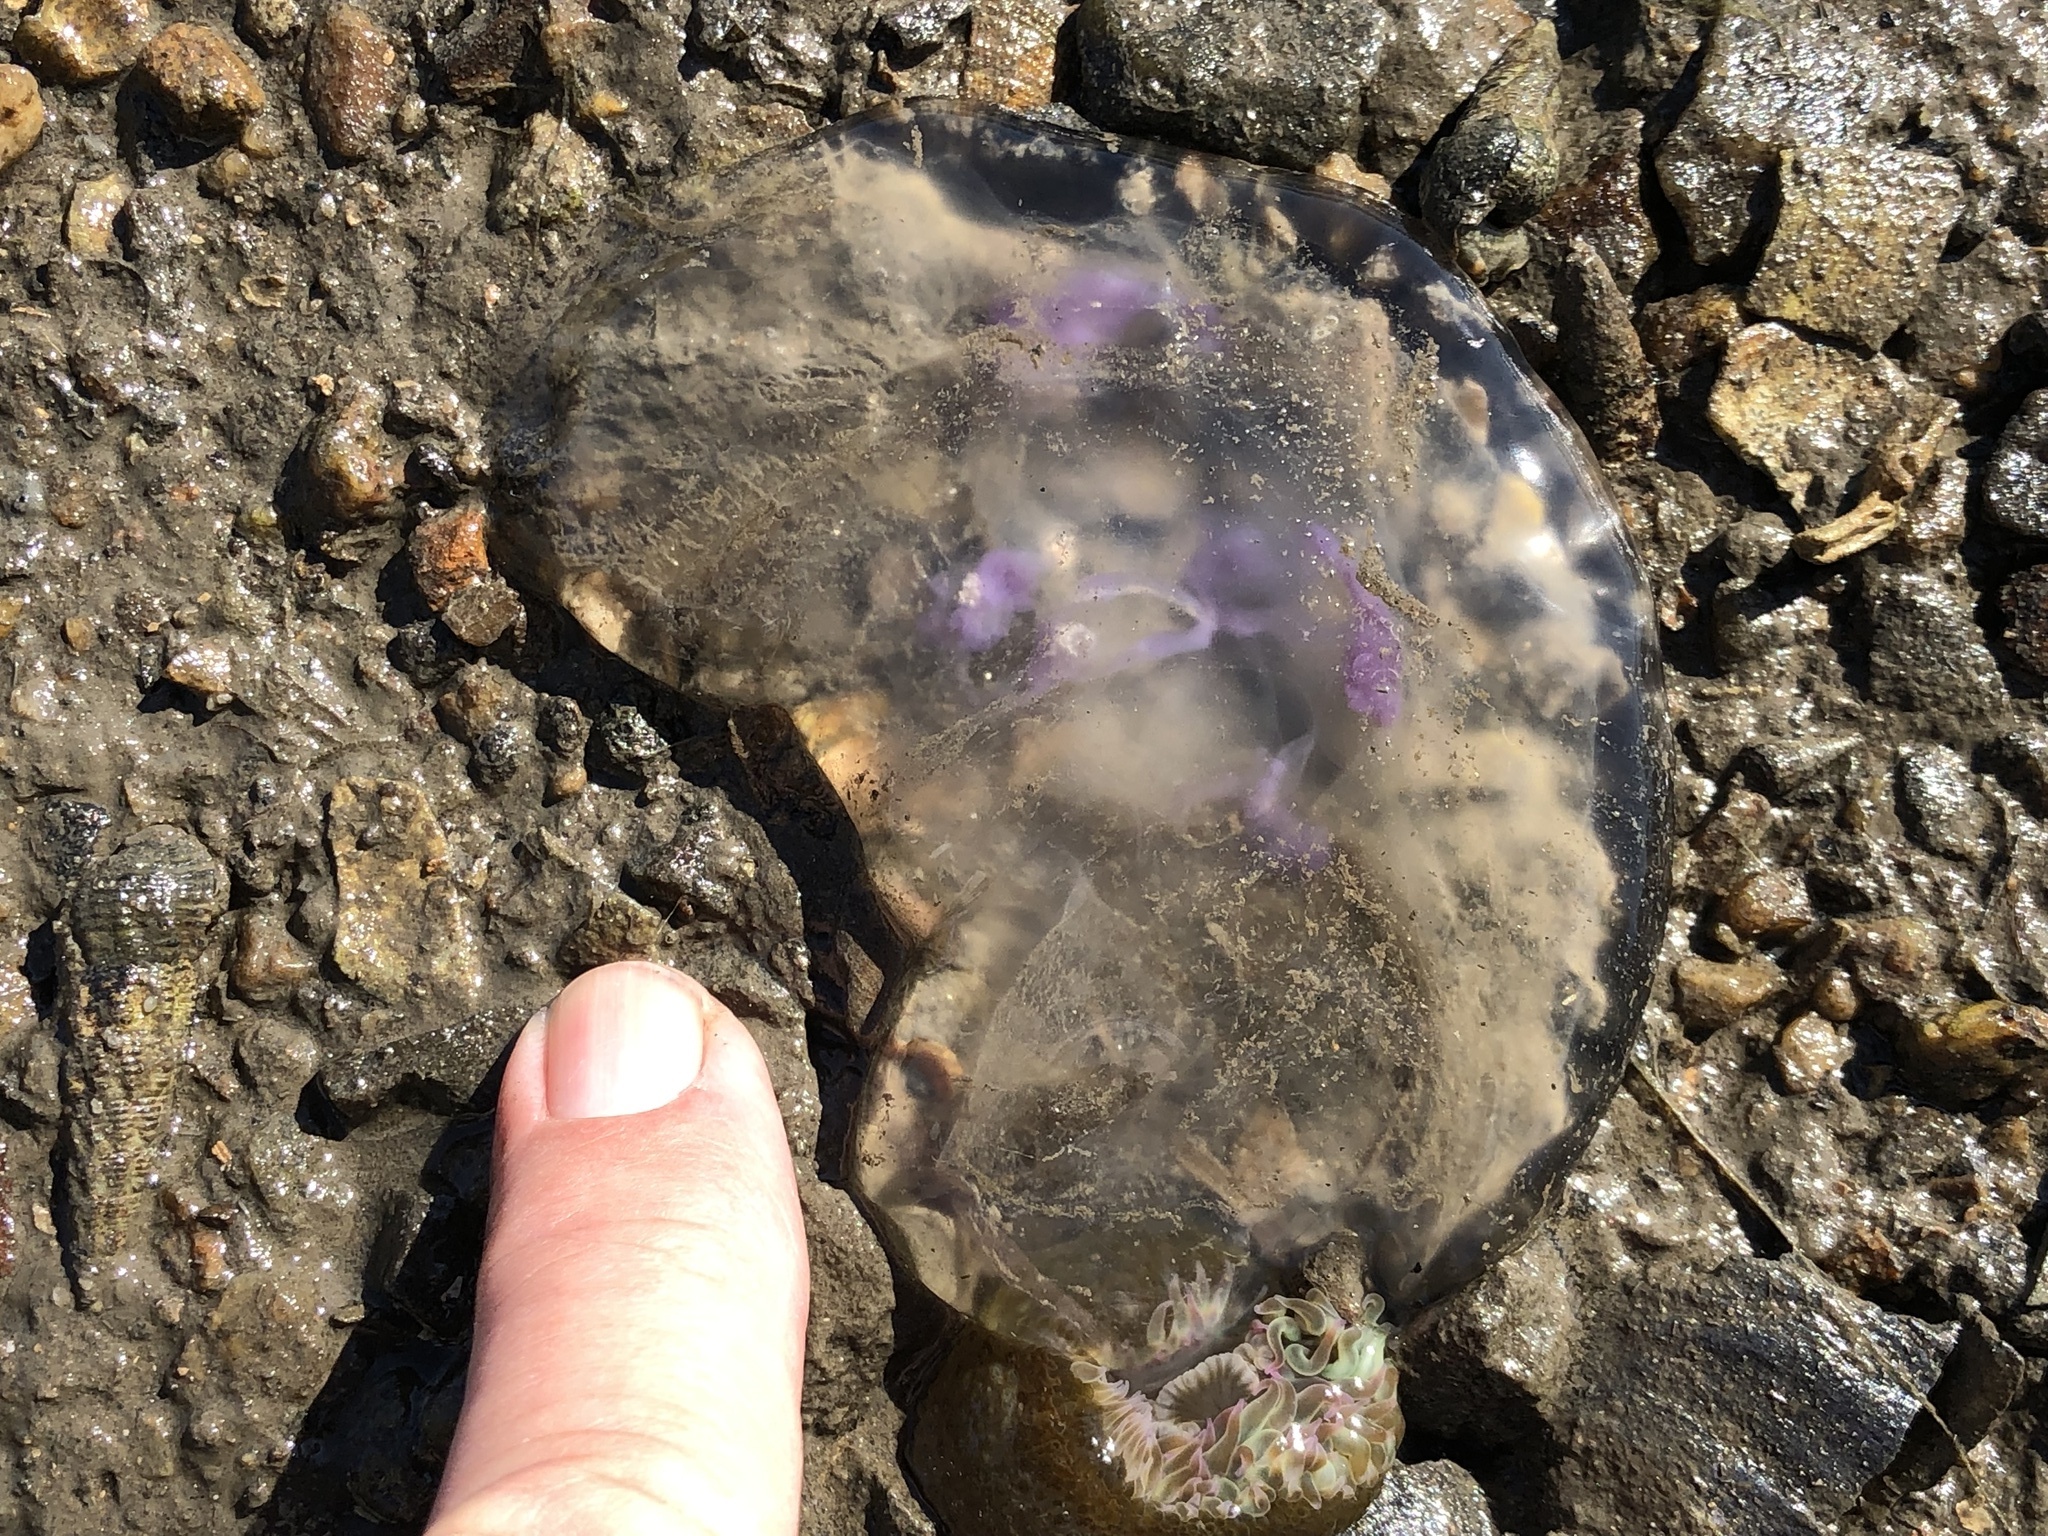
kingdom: Animalia
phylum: Cnidaria
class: Scyphozoa
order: Semaeostomeae
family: Ulmaridae
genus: Aurelia
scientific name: Aurelia labiata
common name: Pacific moon jelly
